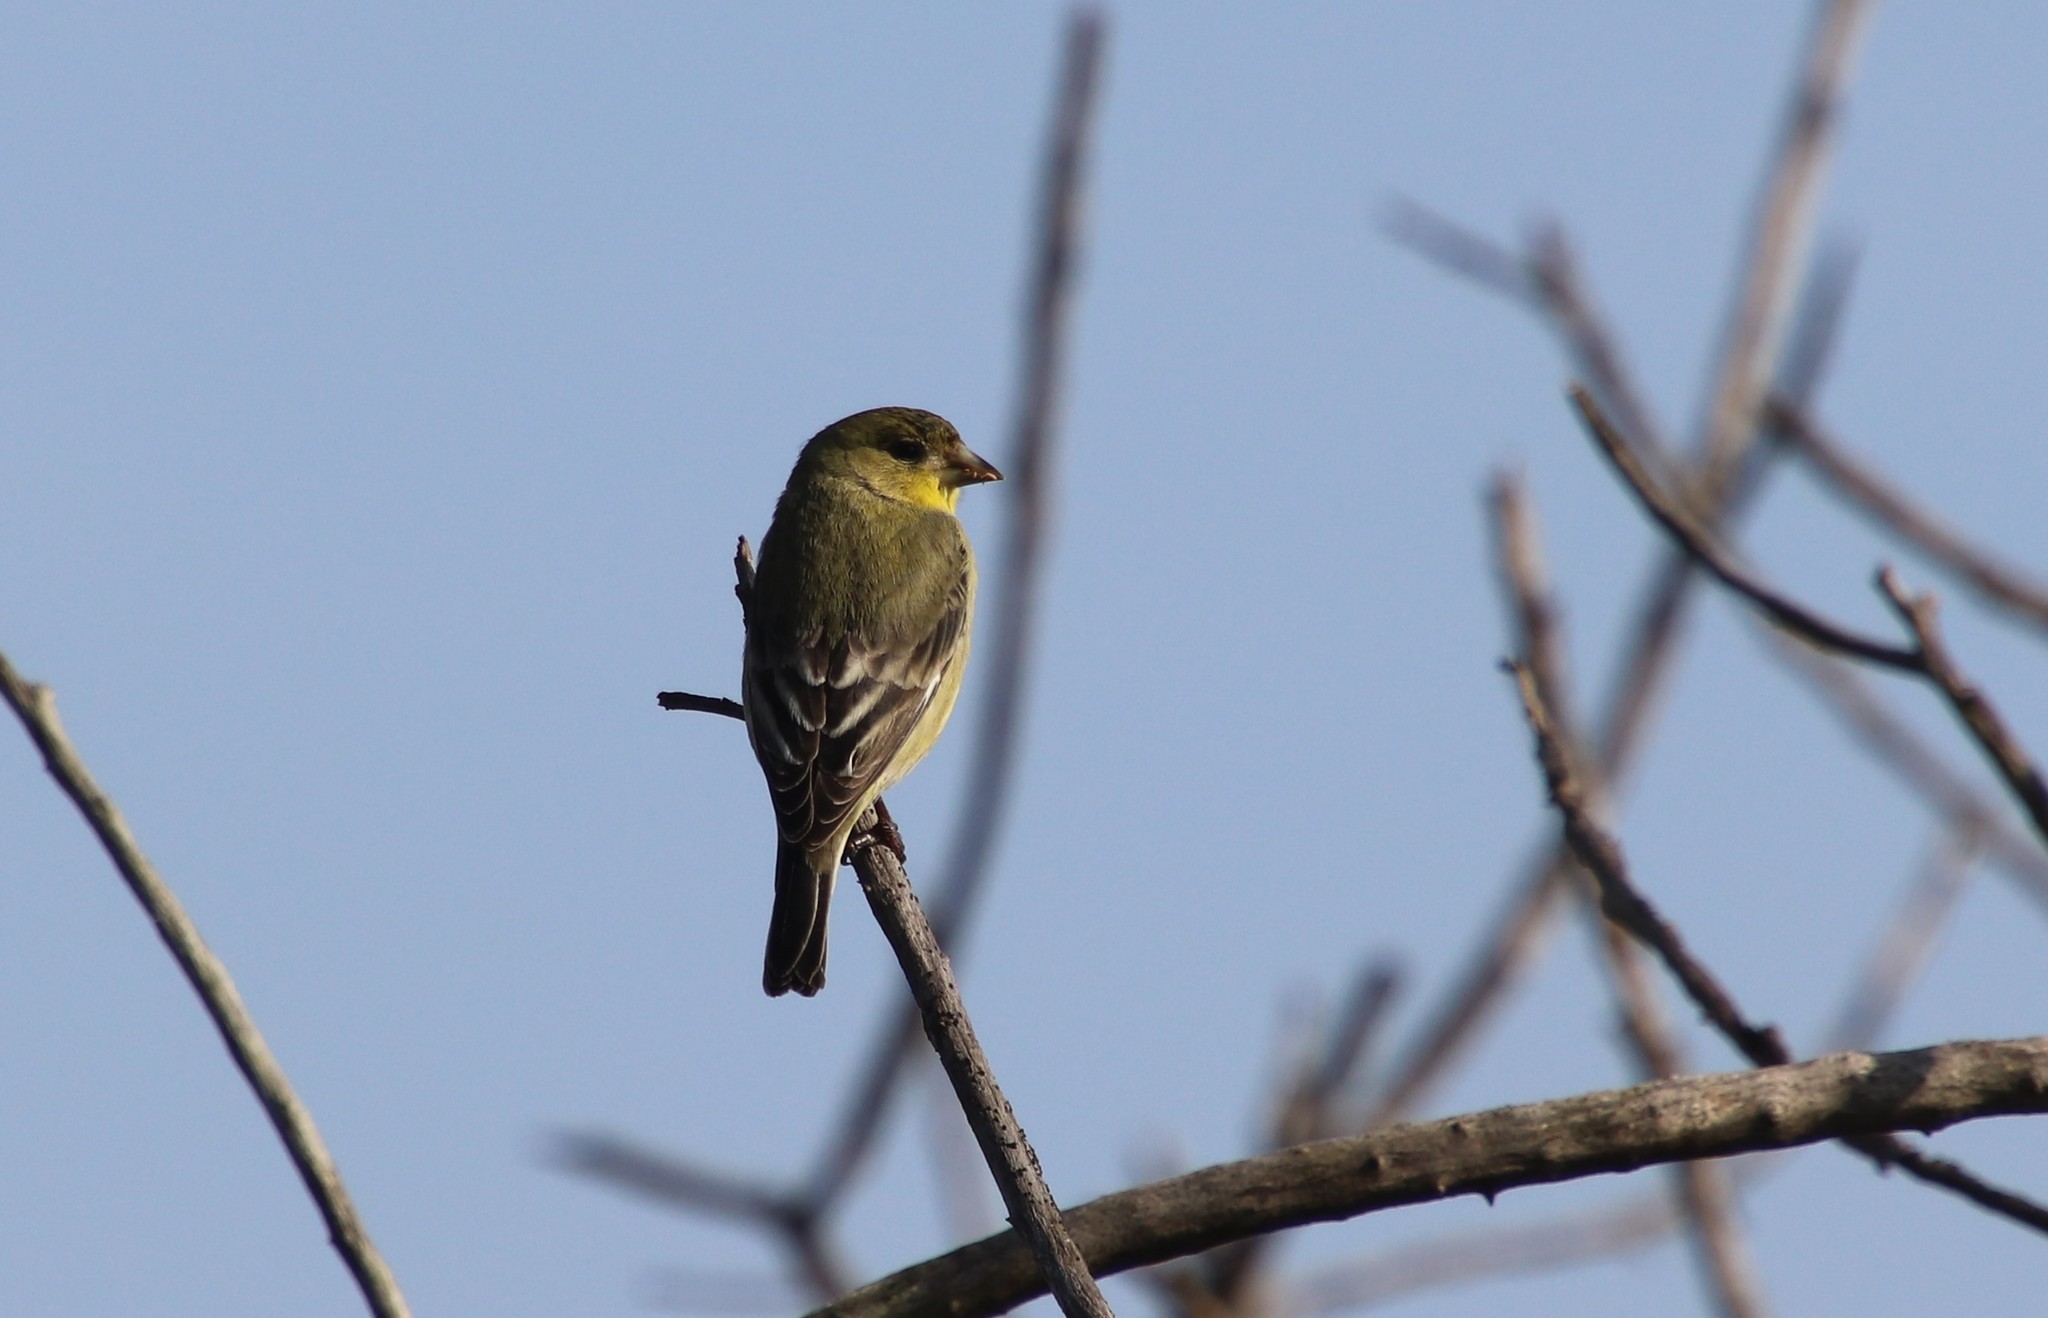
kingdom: Animalia
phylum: Chordata
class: Aves
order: Passeriformes
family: Fringillidae
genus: Spinus
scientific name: Spinus psaltria
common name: Lesser goldfinch
